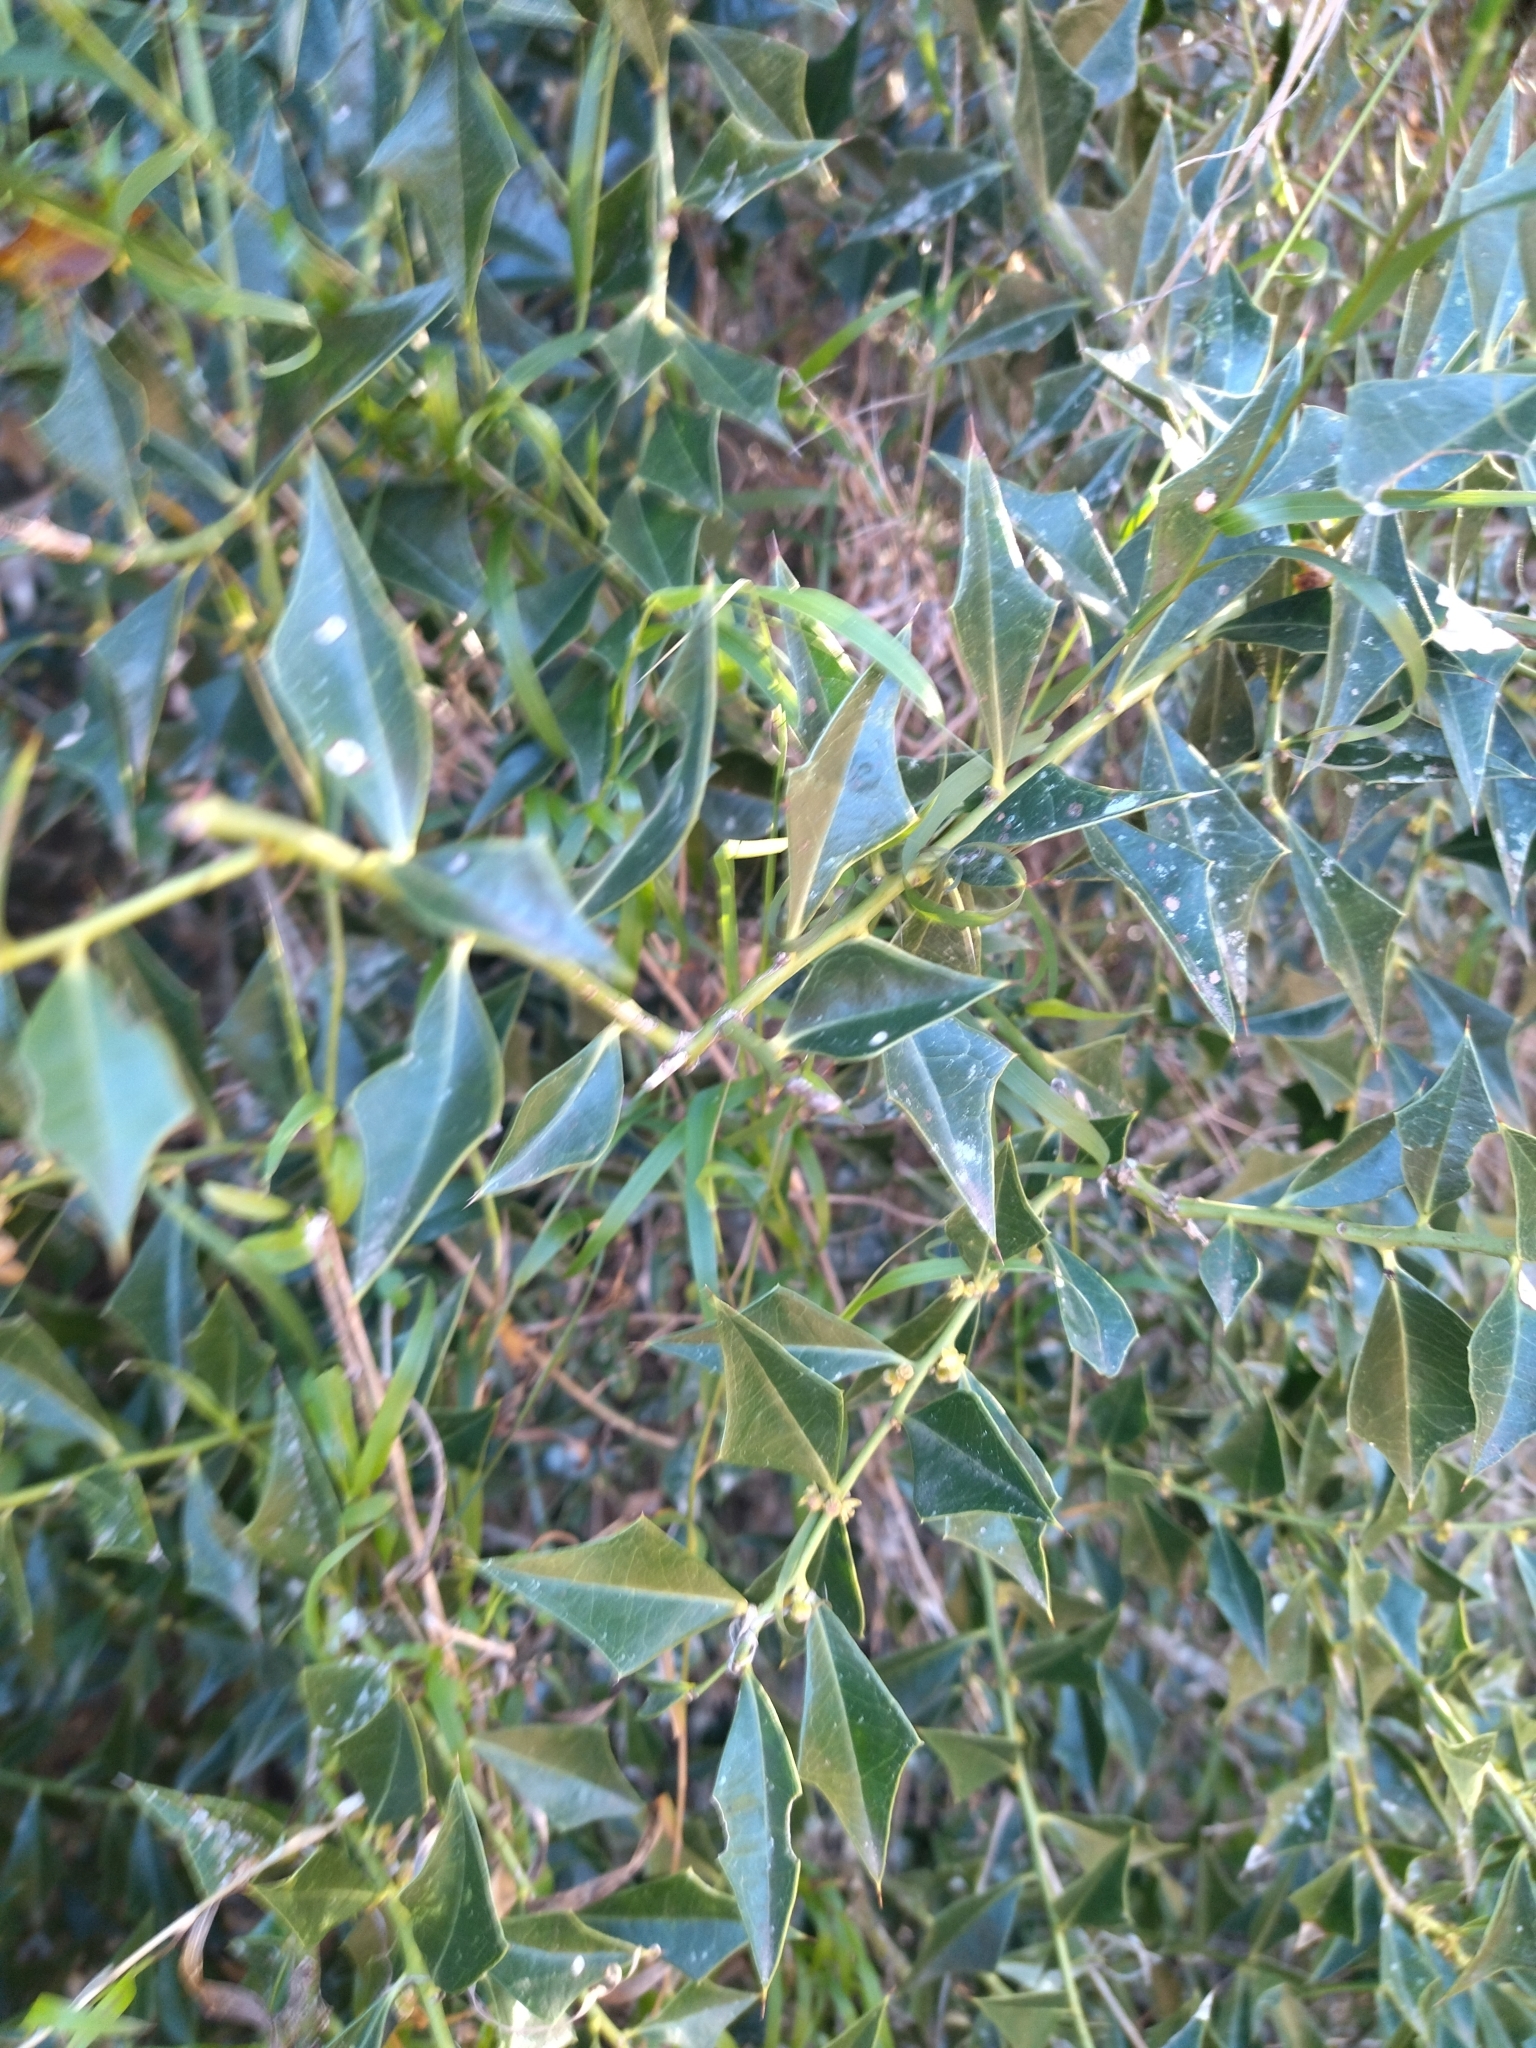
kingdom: Plantae
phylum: Tracheophyta
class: Magnoliopsida
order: Santalales
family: Cervantesiaceae
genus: Jodina
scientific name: Jodina rhombifolia
